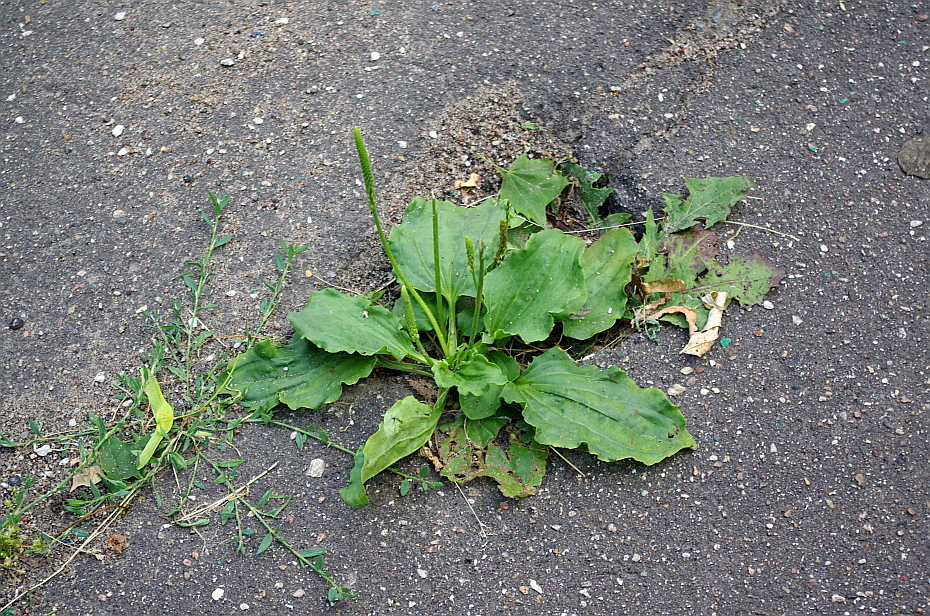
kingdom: Plantae
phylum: Tracheophyta
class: Magnoliopsida
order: Lamiales
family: Plantaginaceae
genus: Plantago
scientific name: Plantago major
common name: Common plantain
